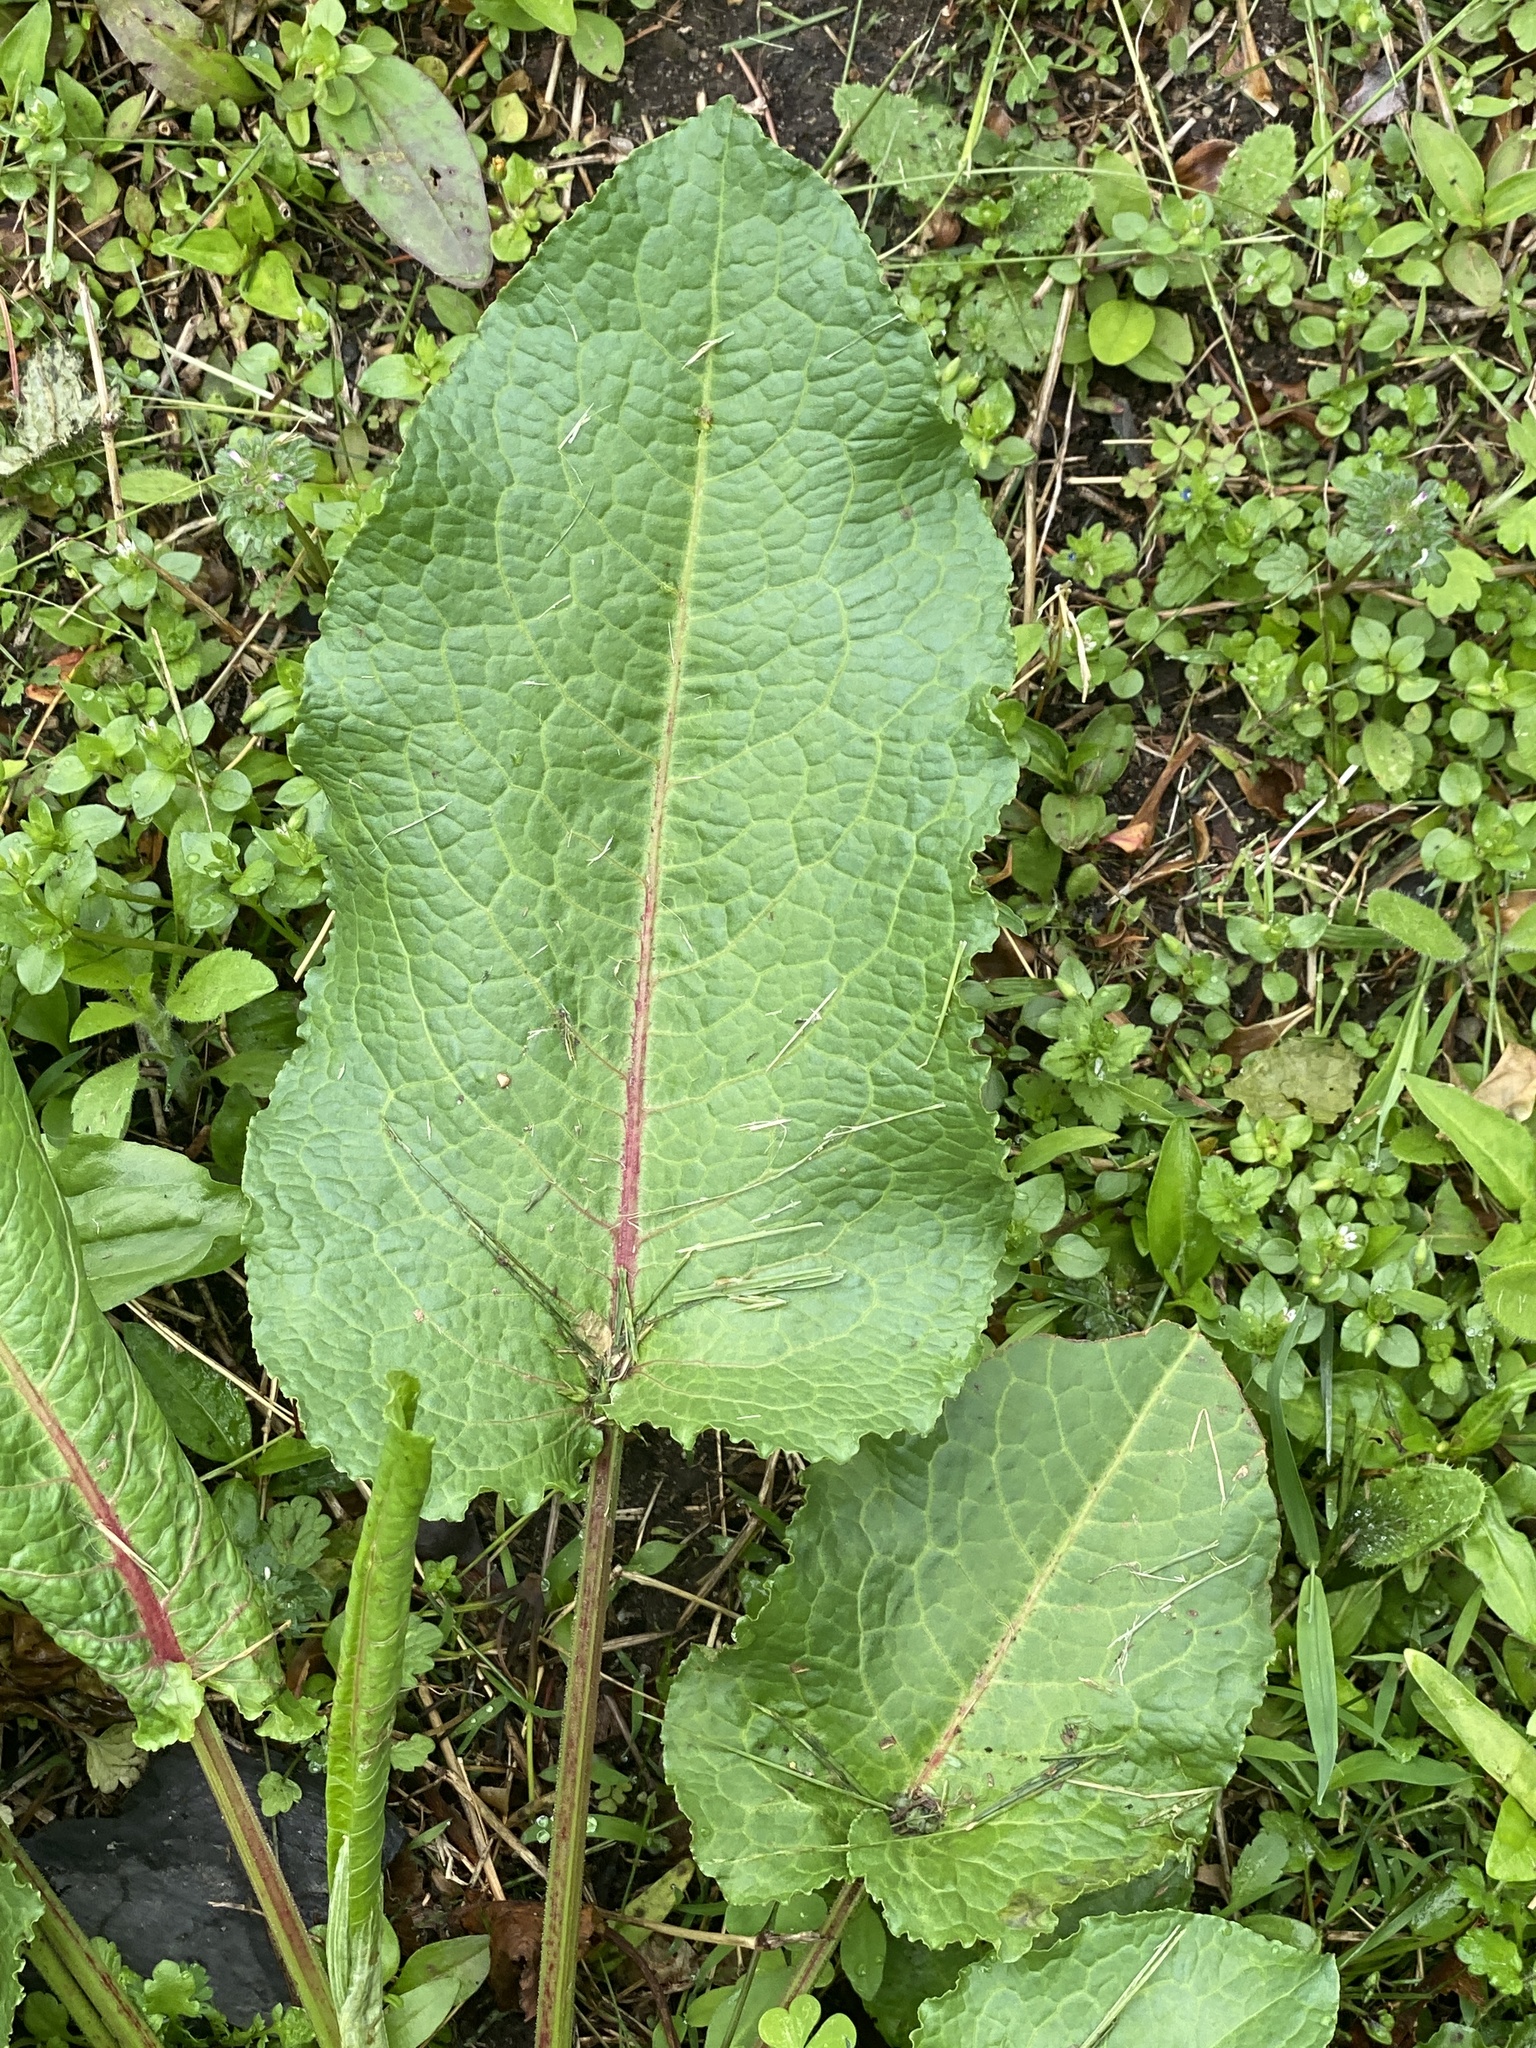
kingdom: Plantae
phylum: Tracheophyta
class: Magnoliopsida
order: Caryophyllales
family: Polygonaceae
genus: Rumex
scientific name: Rumex obtusifolius
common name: Bitter dock
